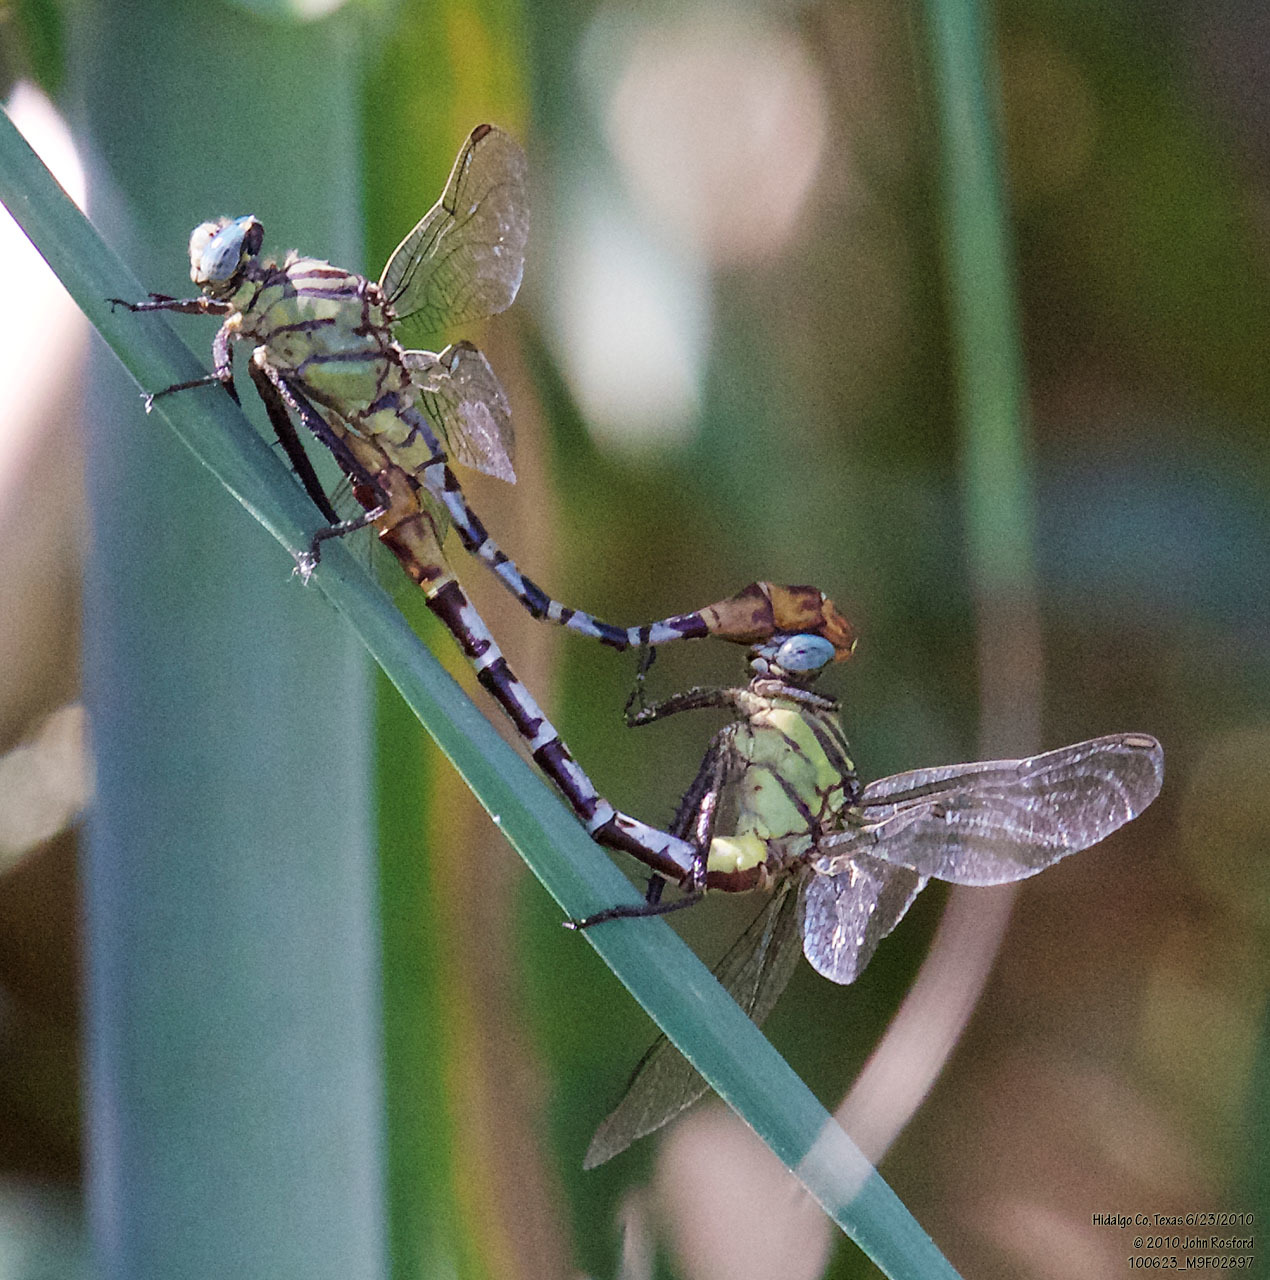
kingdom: Animalia
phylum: Arthropoda
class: Insecta
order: Odonata
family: Gomphidae
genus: Dromogomphus
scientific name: Dromogomphus spoliatus
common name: Flag-tailed spinyleg
